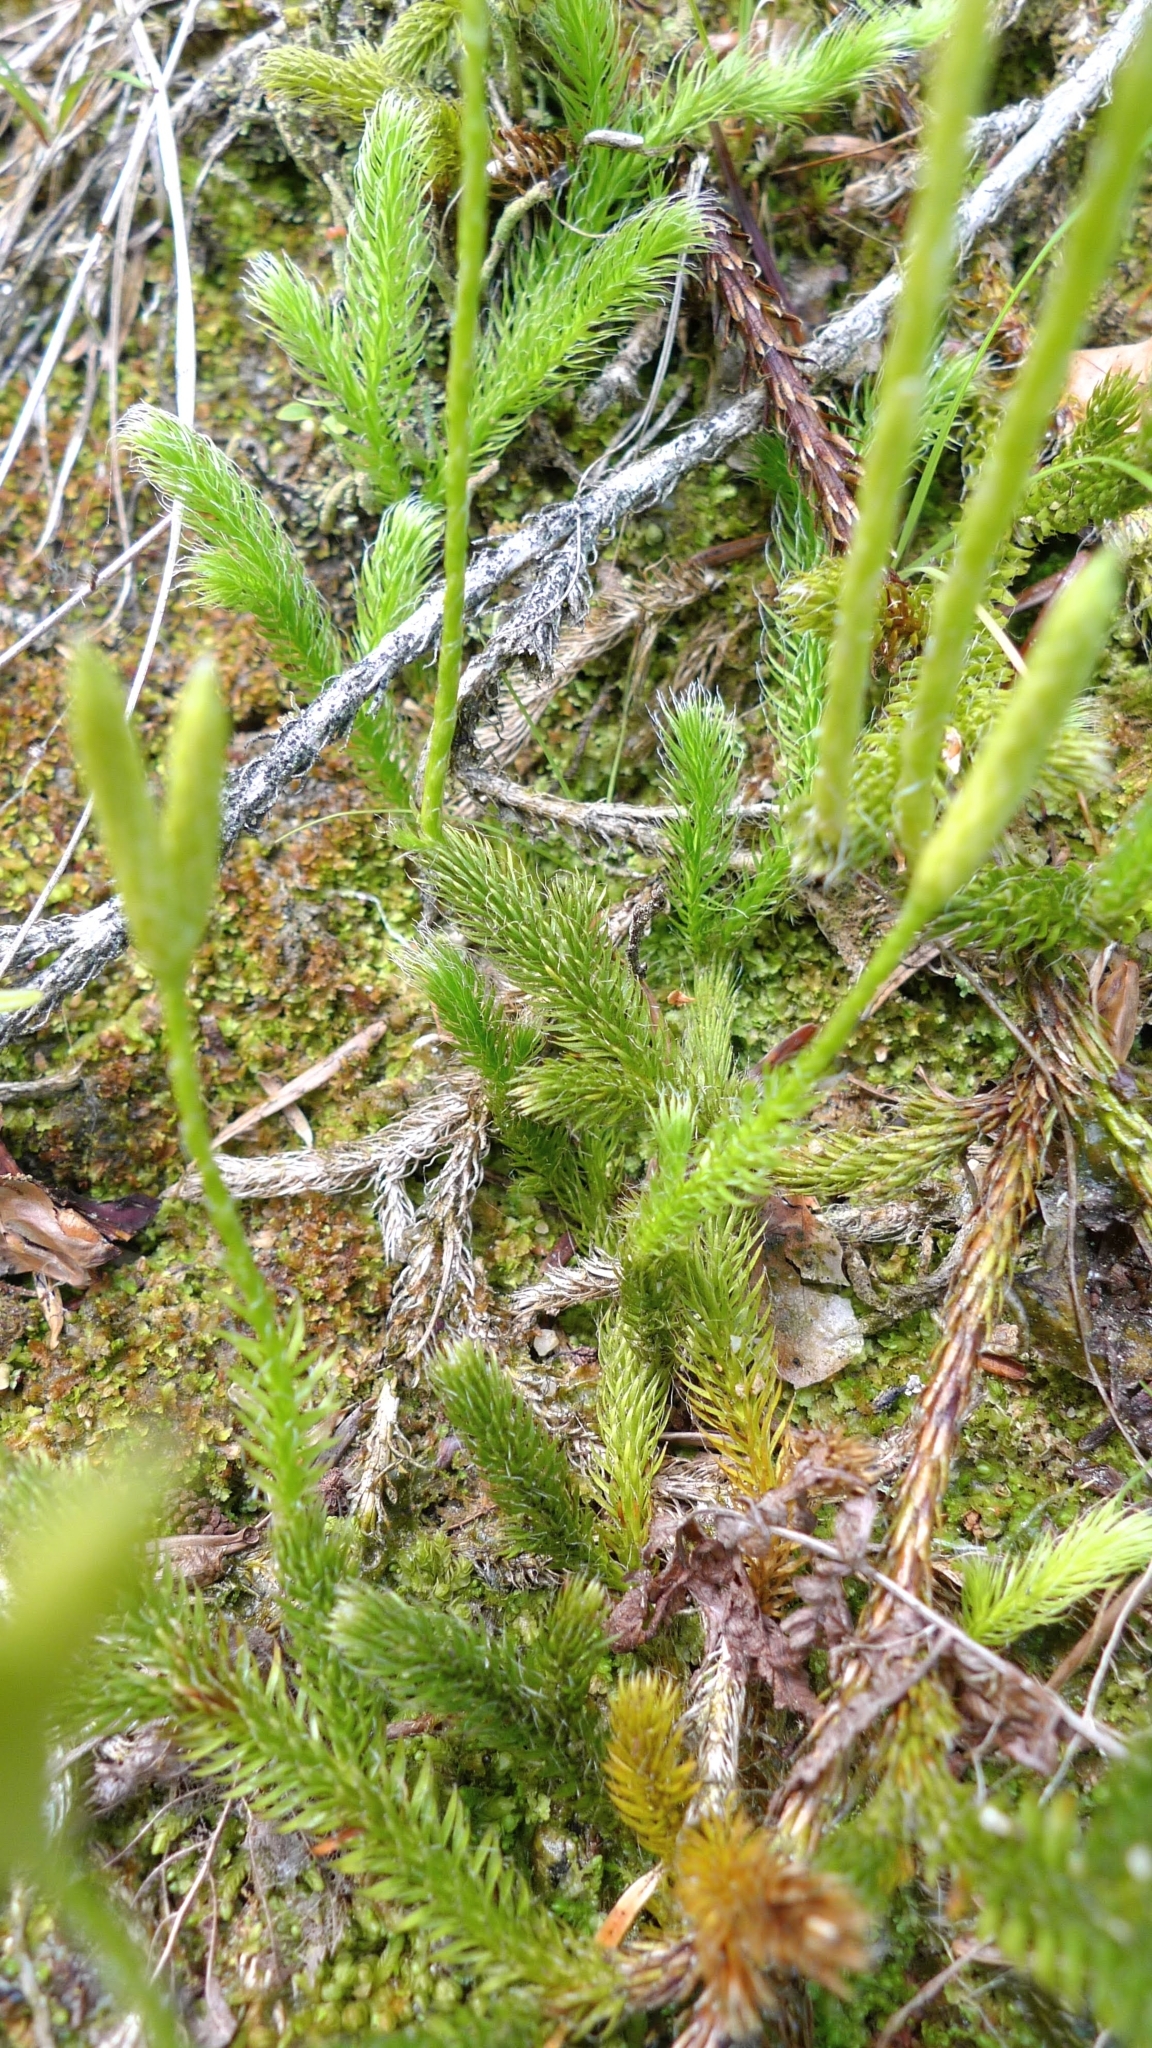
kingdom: Plantae
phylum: Tracheophyta
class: Lycopodiopsida
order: Lycopodiales
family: Lycopodiaceae
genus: Lycopodium
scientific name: Lycopodium clavatum
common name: Stag's-horn clubmoss
